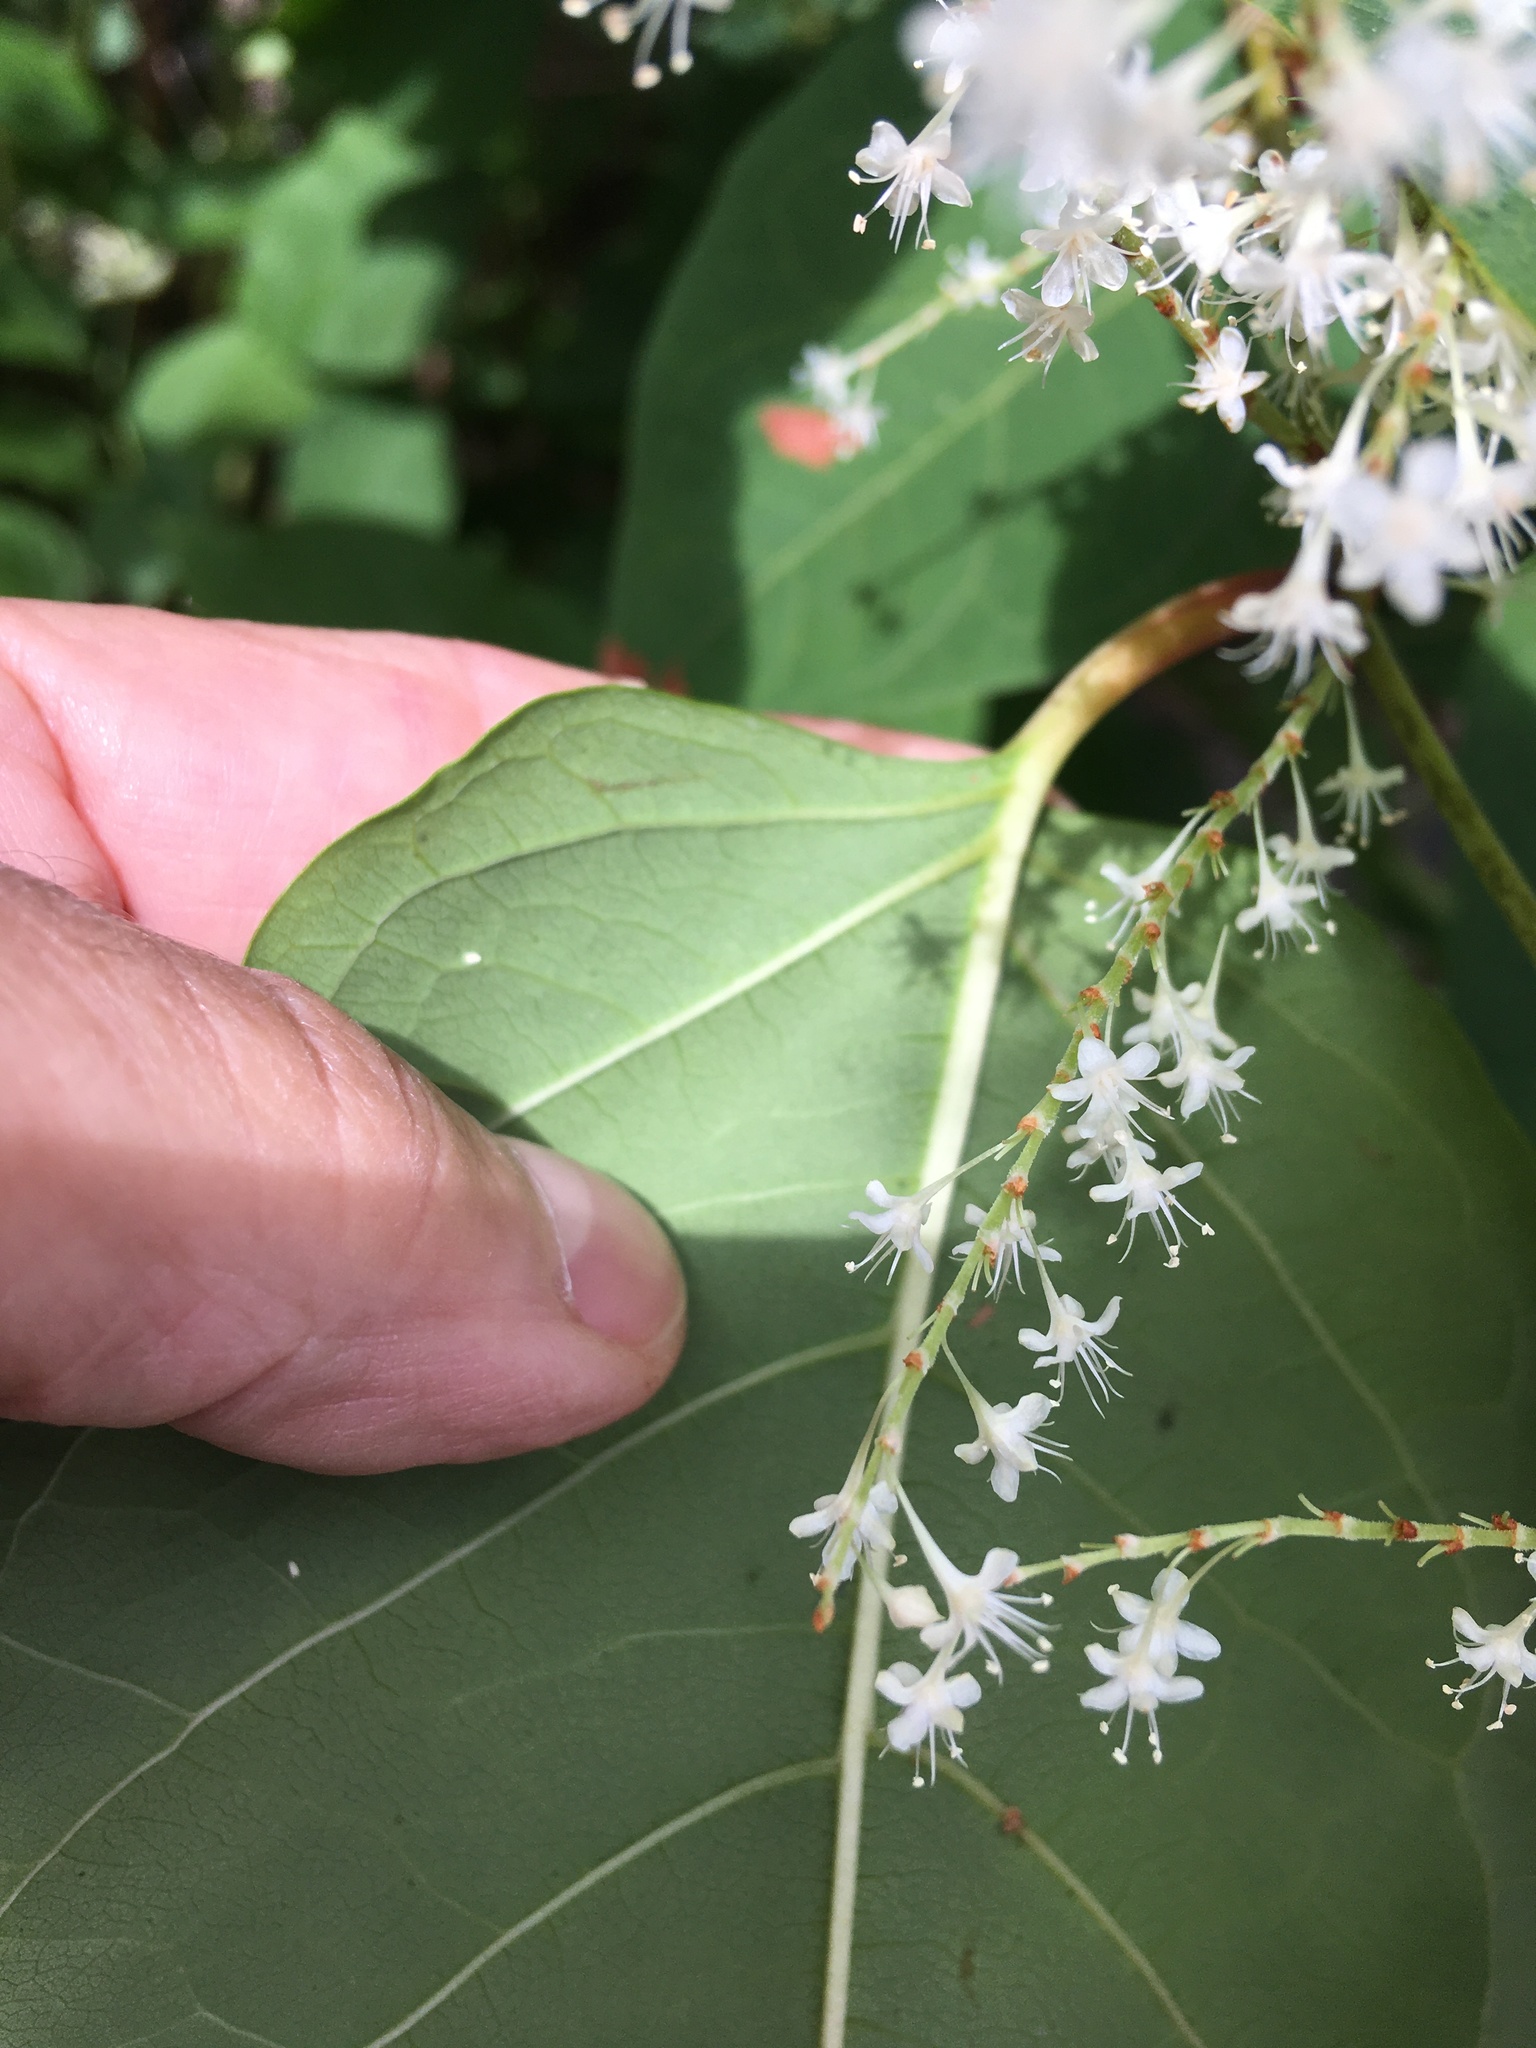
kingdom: Plantae
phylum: Tracheophyta
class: Magnoliopsida
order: Caryophyllales
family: Polygonaceae
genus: Reynoutria
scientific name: Reynoutria bohemica
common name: Bohemian knotweed
